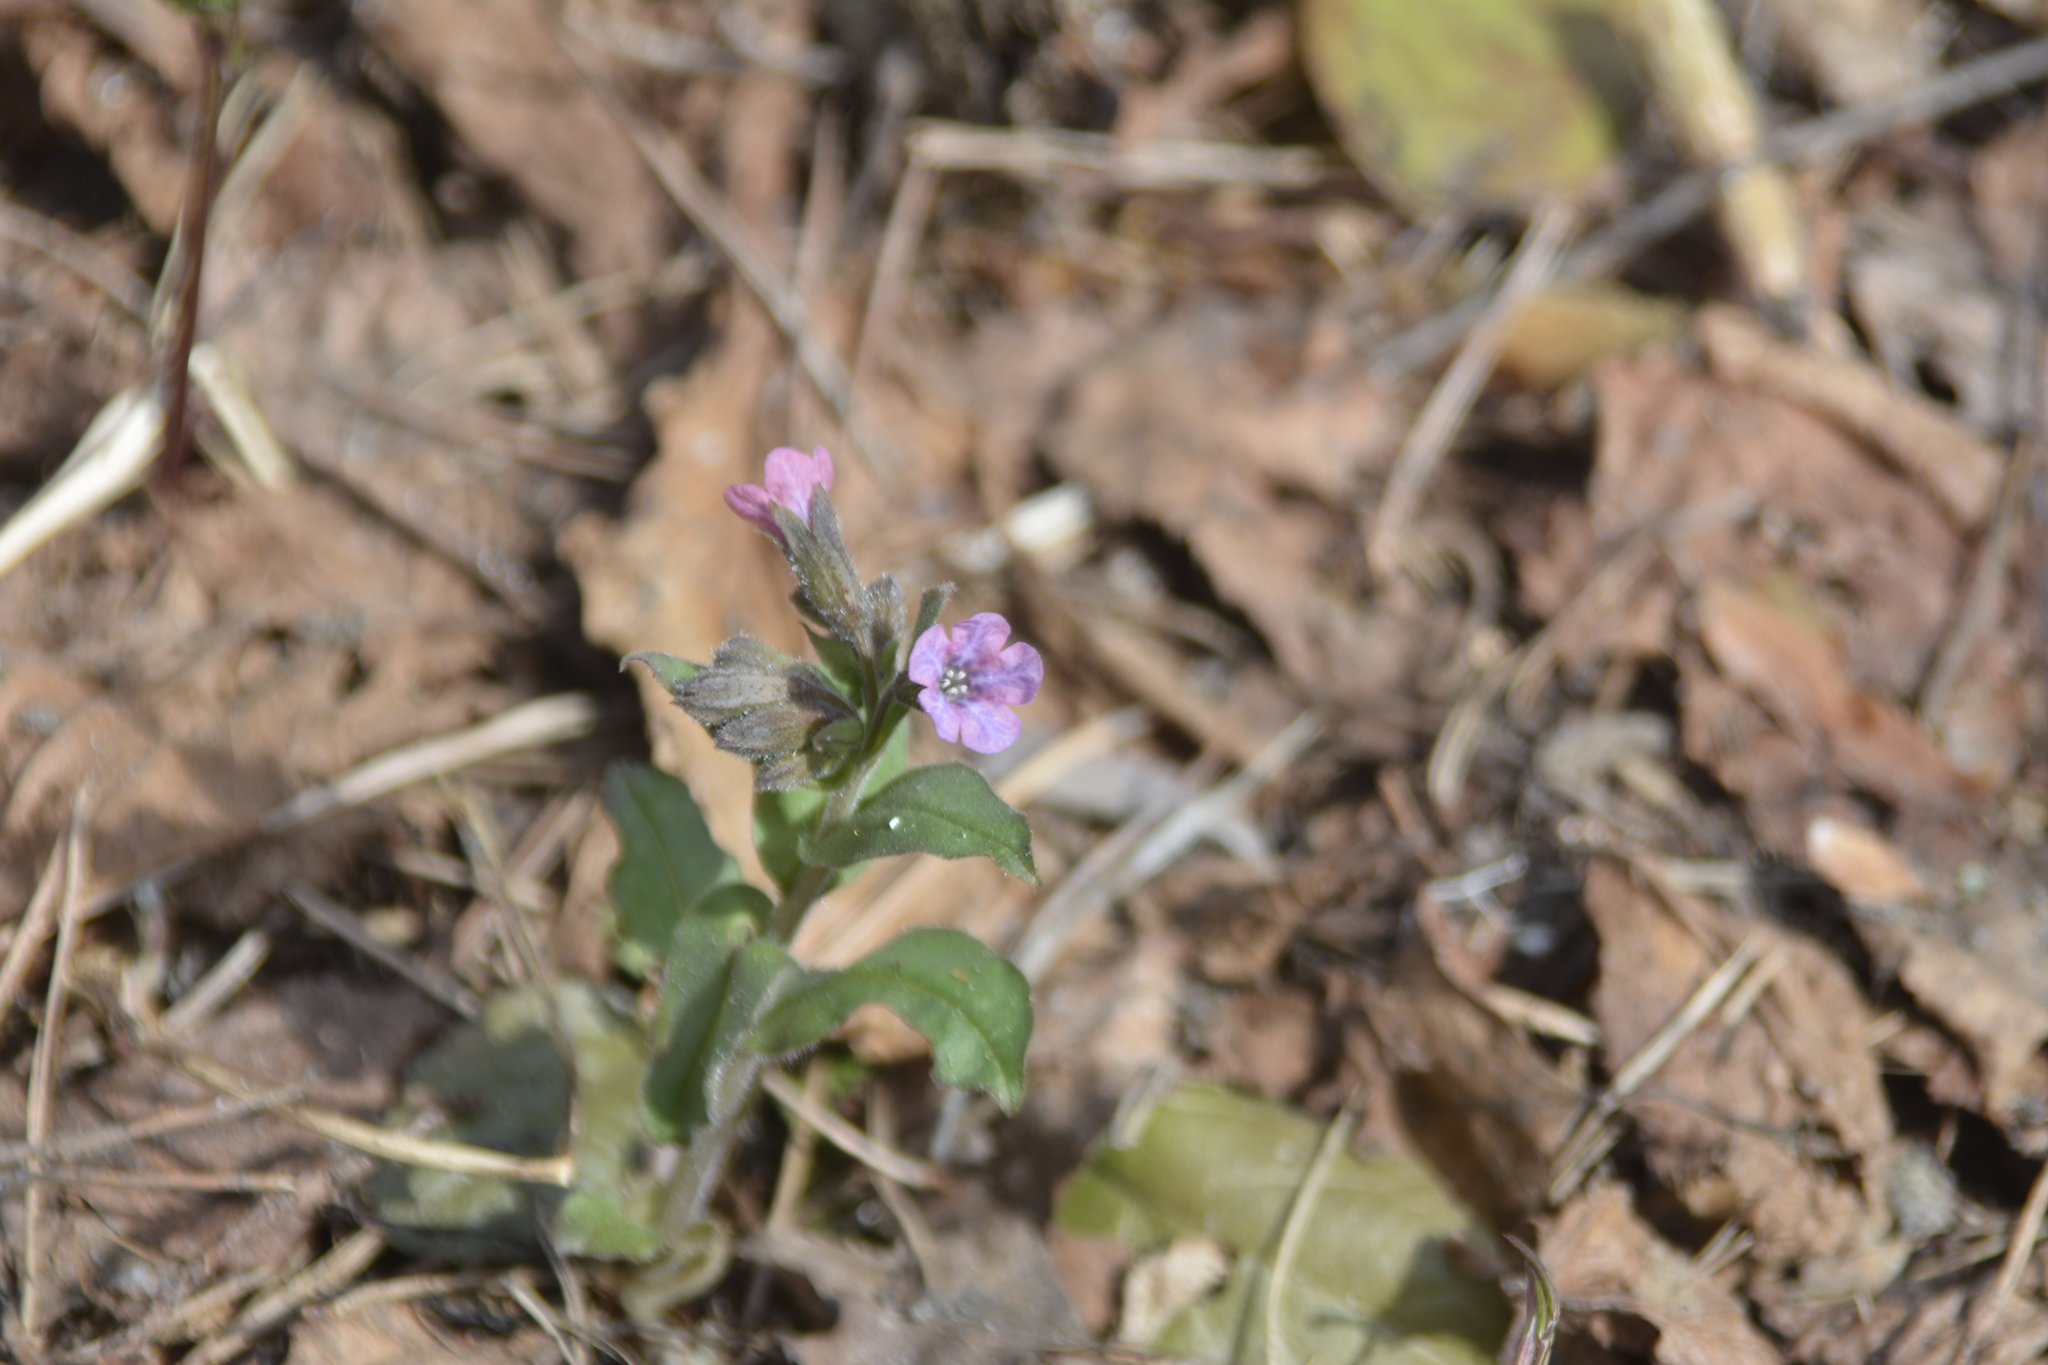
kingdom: Plantae
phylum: Tracheophyta
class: Magnoliopsida
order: Boraginales
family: Boraginaceae
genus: Pulmonaria
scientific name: Pulmonaria obscura
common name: Suffolk lungwort
